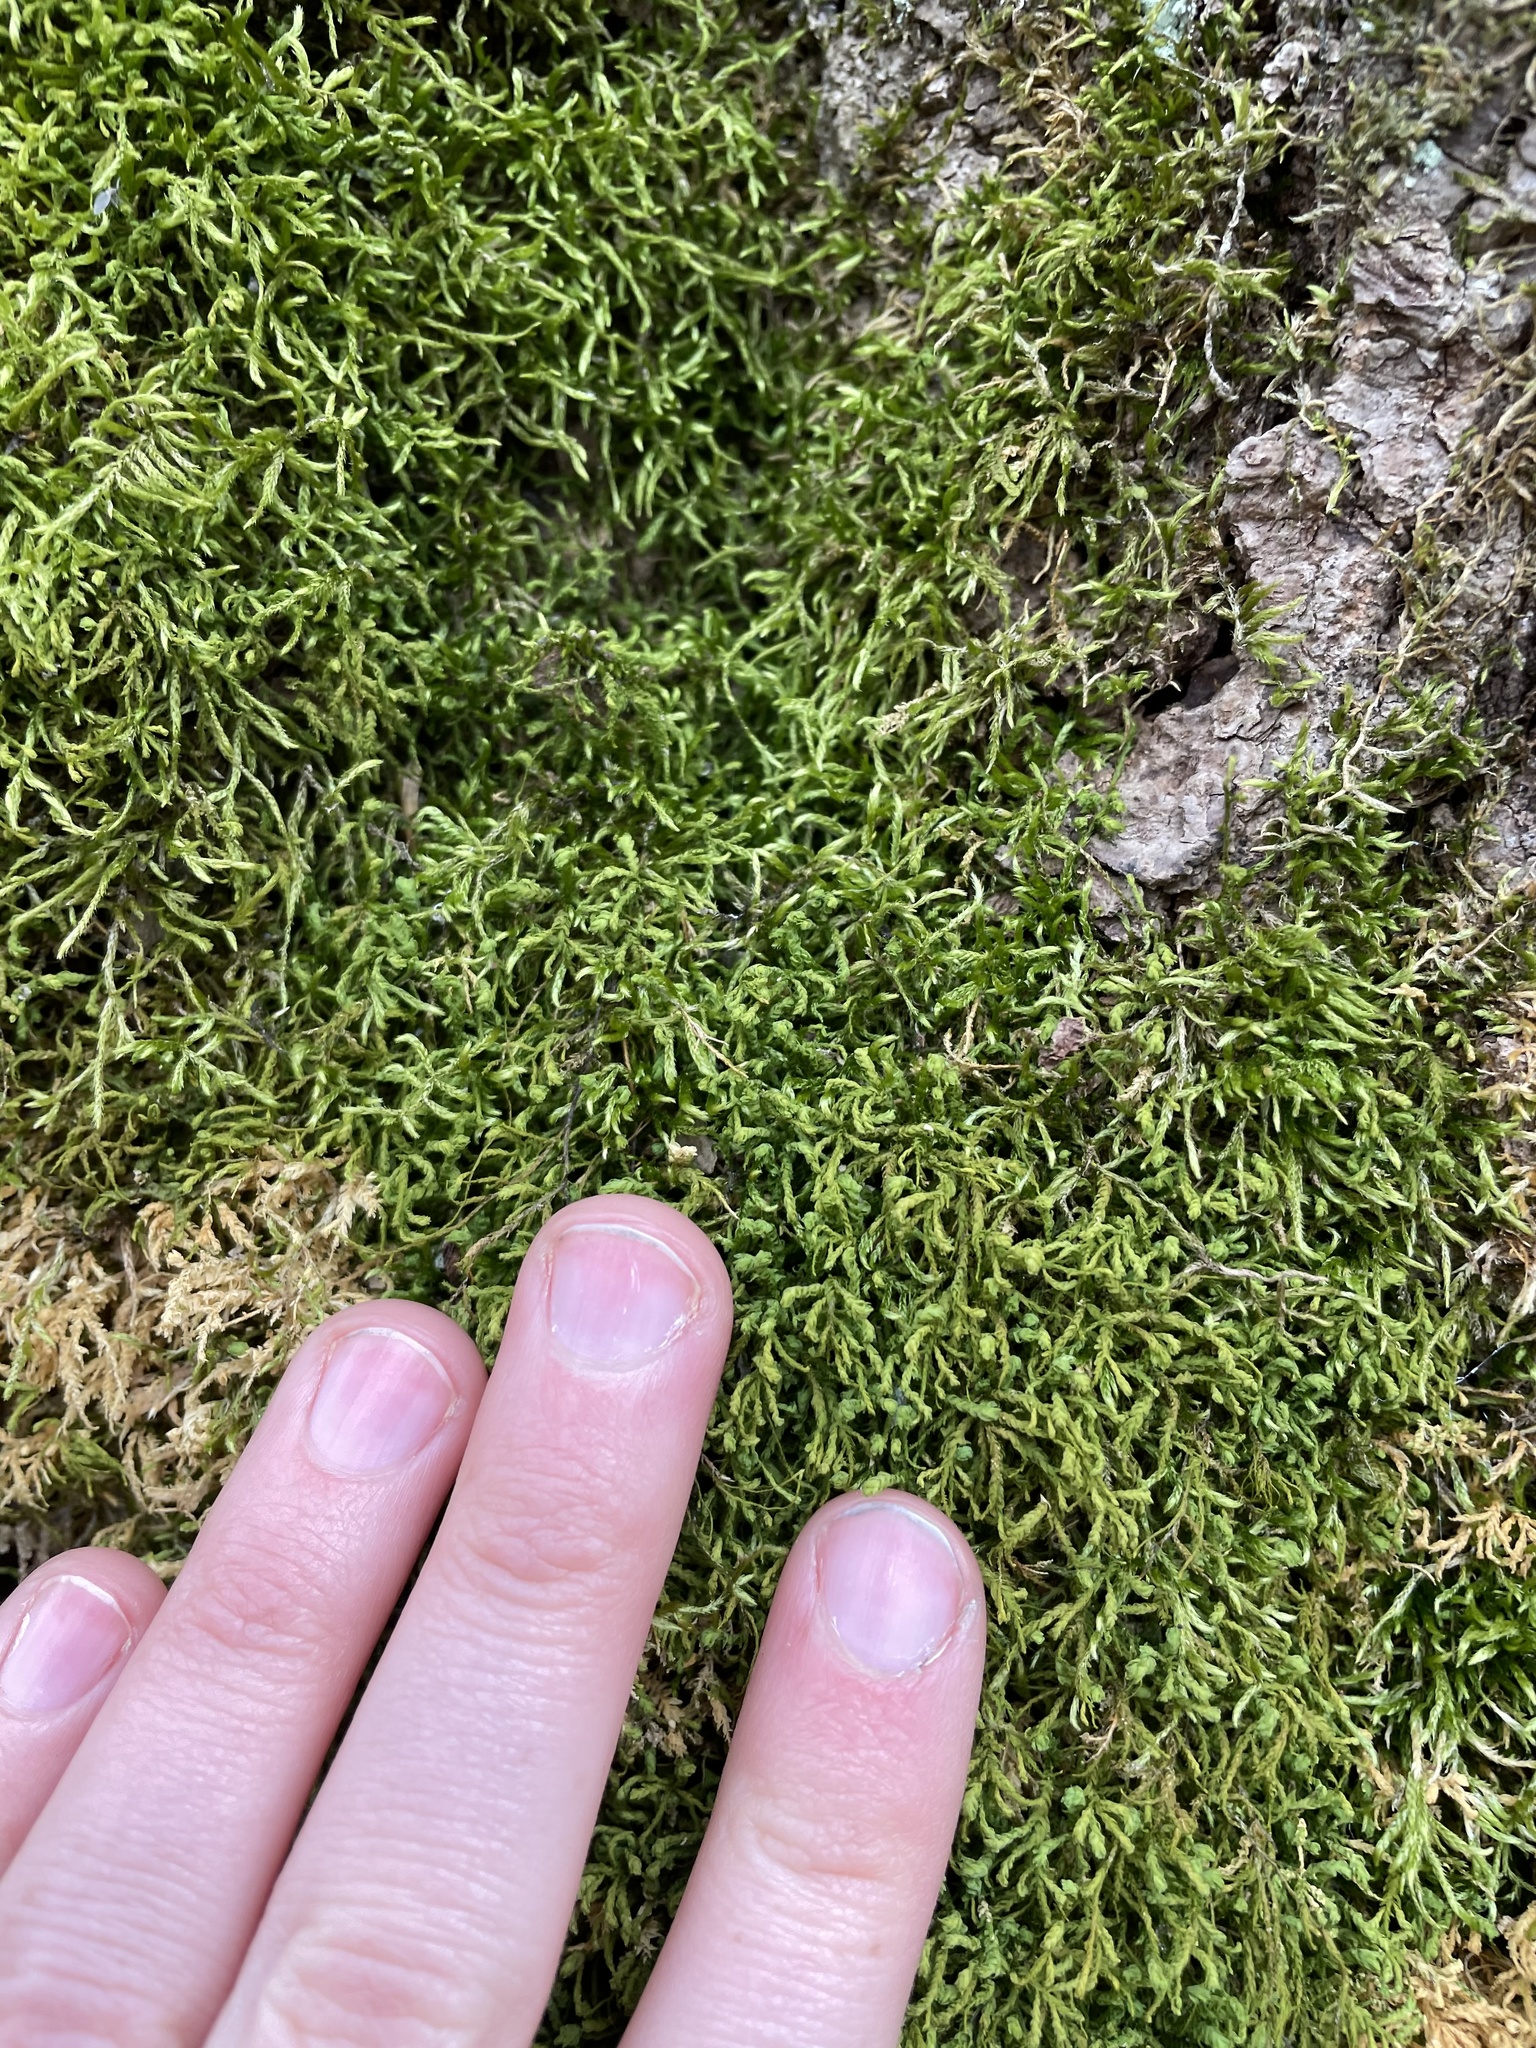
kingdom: Plantae
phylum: Bryophyta
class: Bryopsida
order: Hypnales
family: Neckeraceae
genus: Pseudanomodon
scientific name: Pseudanomodon attenuatus
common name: Tree-skirt moss
